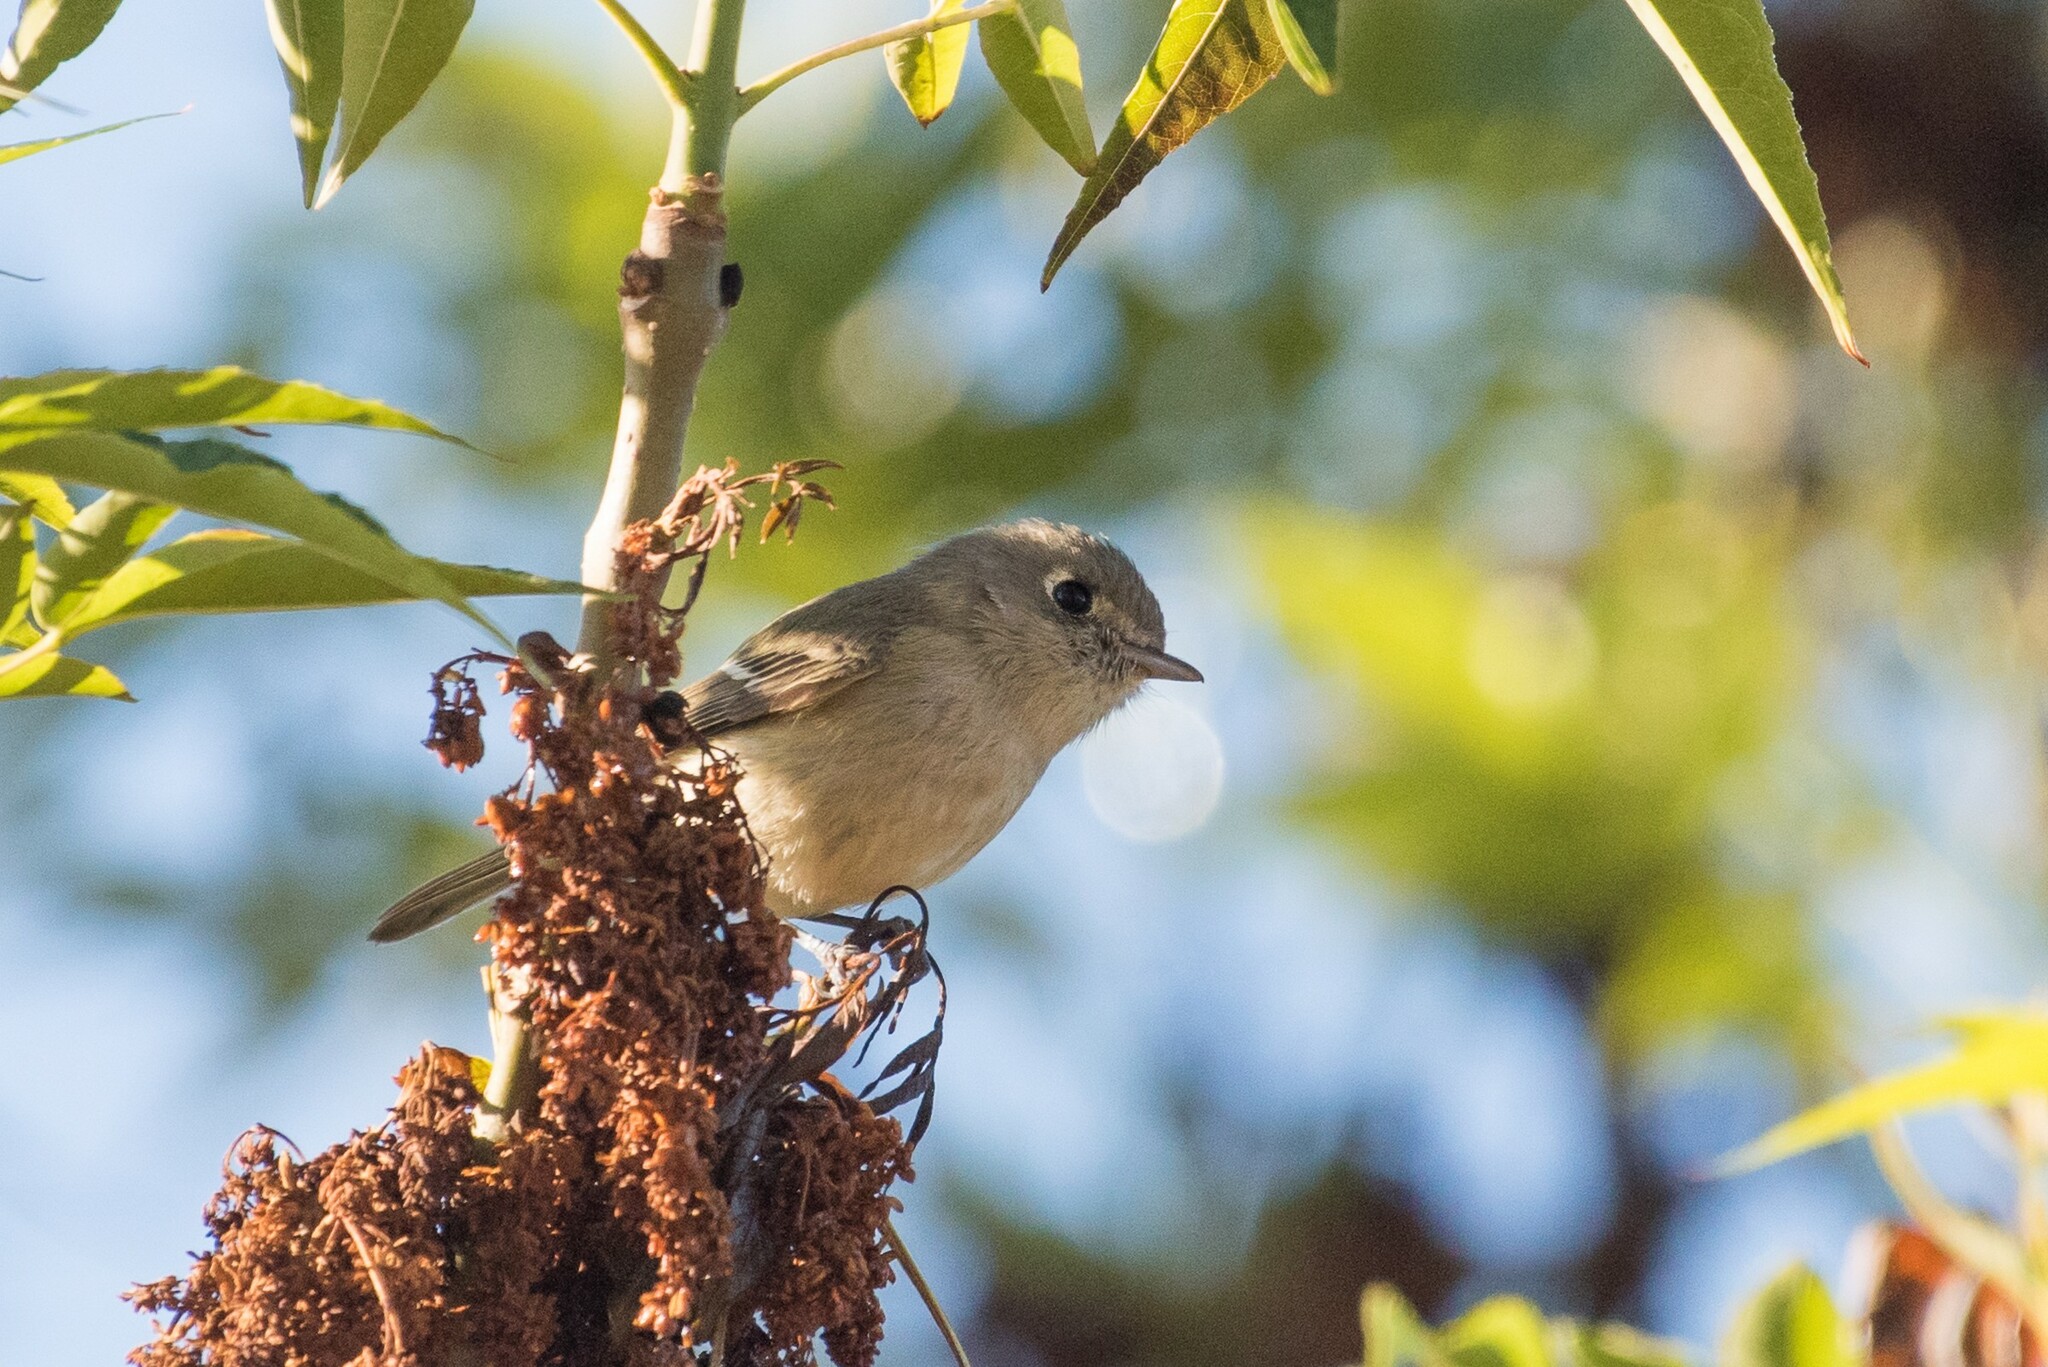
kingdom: Animalia
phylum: Chordata
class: Aves
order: Passeriformes
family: Vireonidae
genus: Vireo
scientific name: Vireo huttoni
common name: Hutton's vireo
